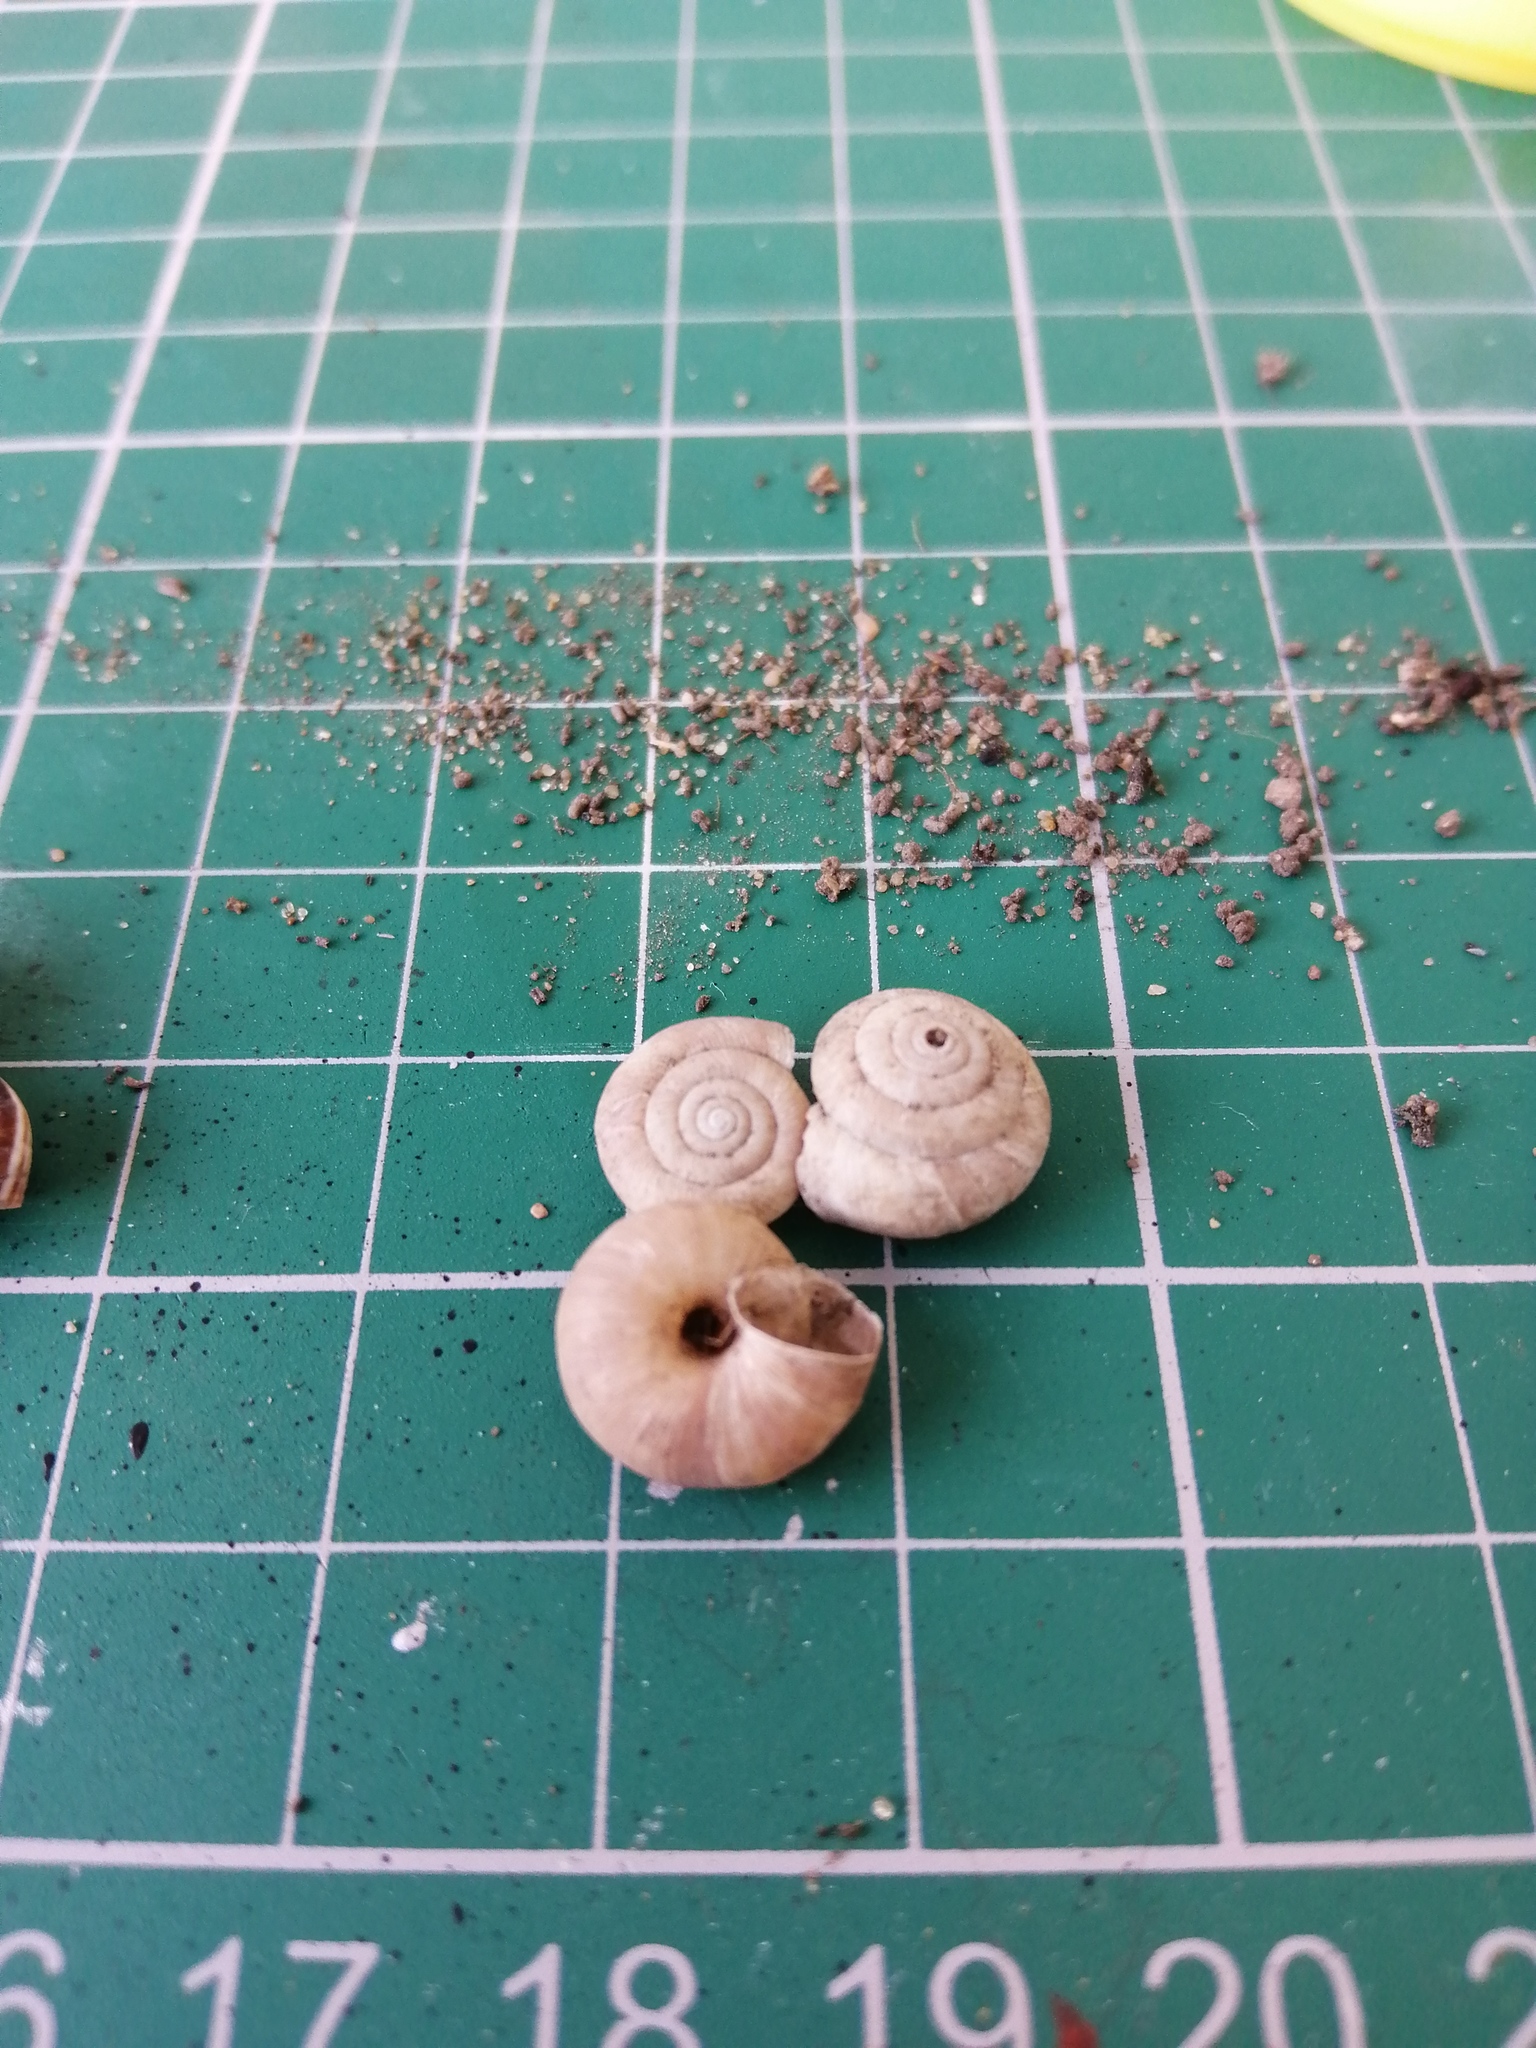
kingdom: Animalia
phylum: Mollusca
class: Gastropoda
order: Stylommatophora
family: Hygromiidae
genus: Trochulus
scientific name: Trochulus striolatus
